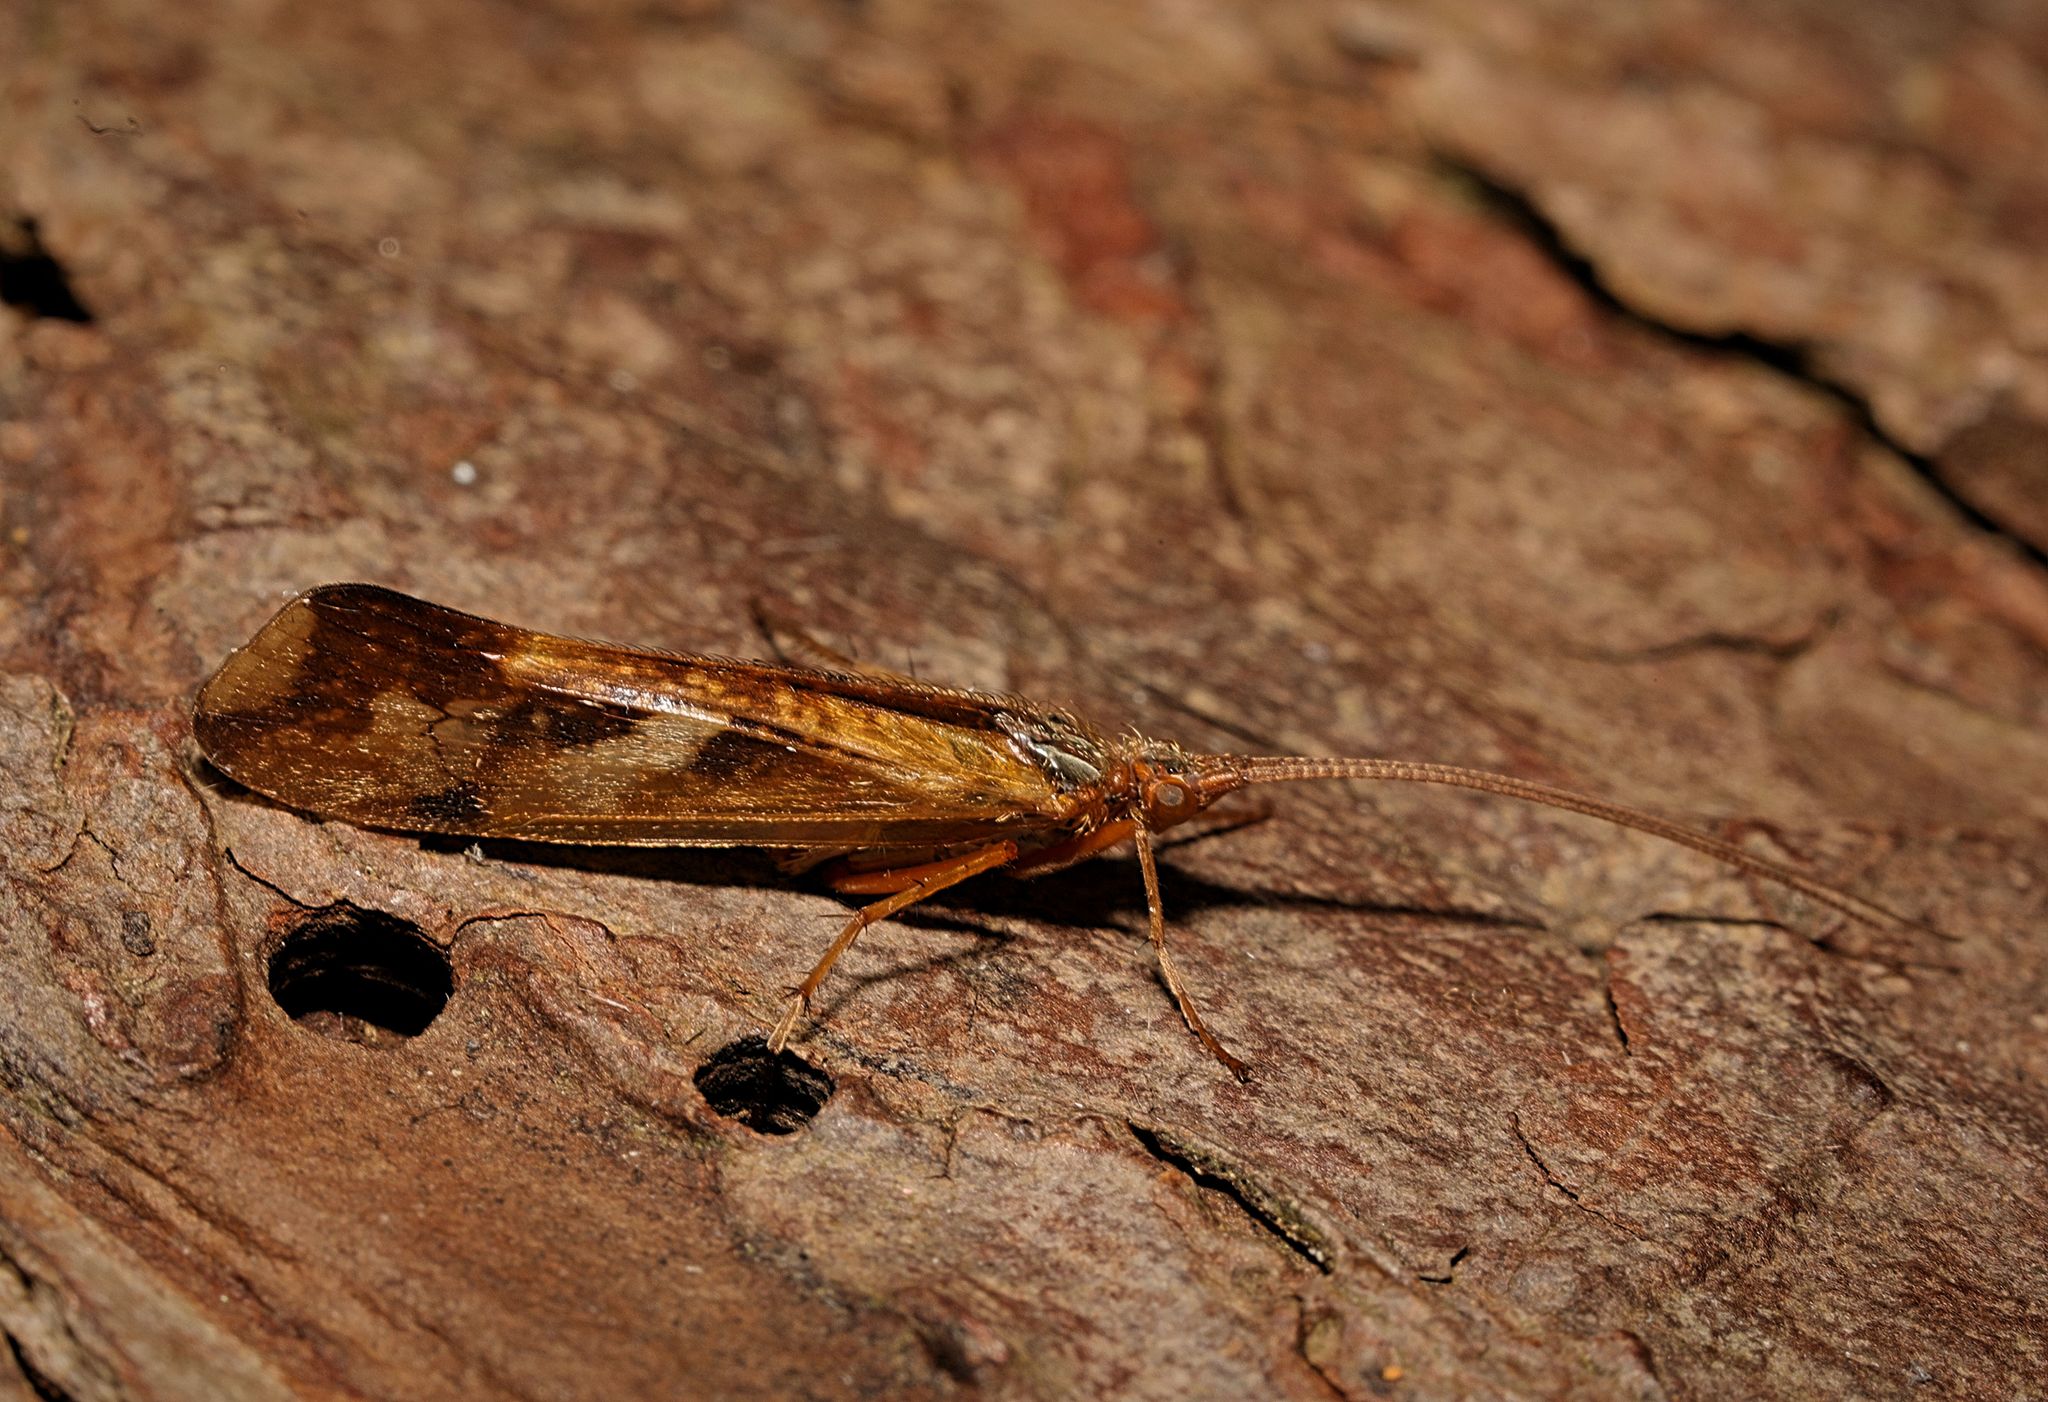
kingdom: Animalia
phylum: Arthropoda
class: Insecta
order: Trichoptera
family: Limnephilidae
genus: Limnephilus
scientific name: Limnephilus lunatus
